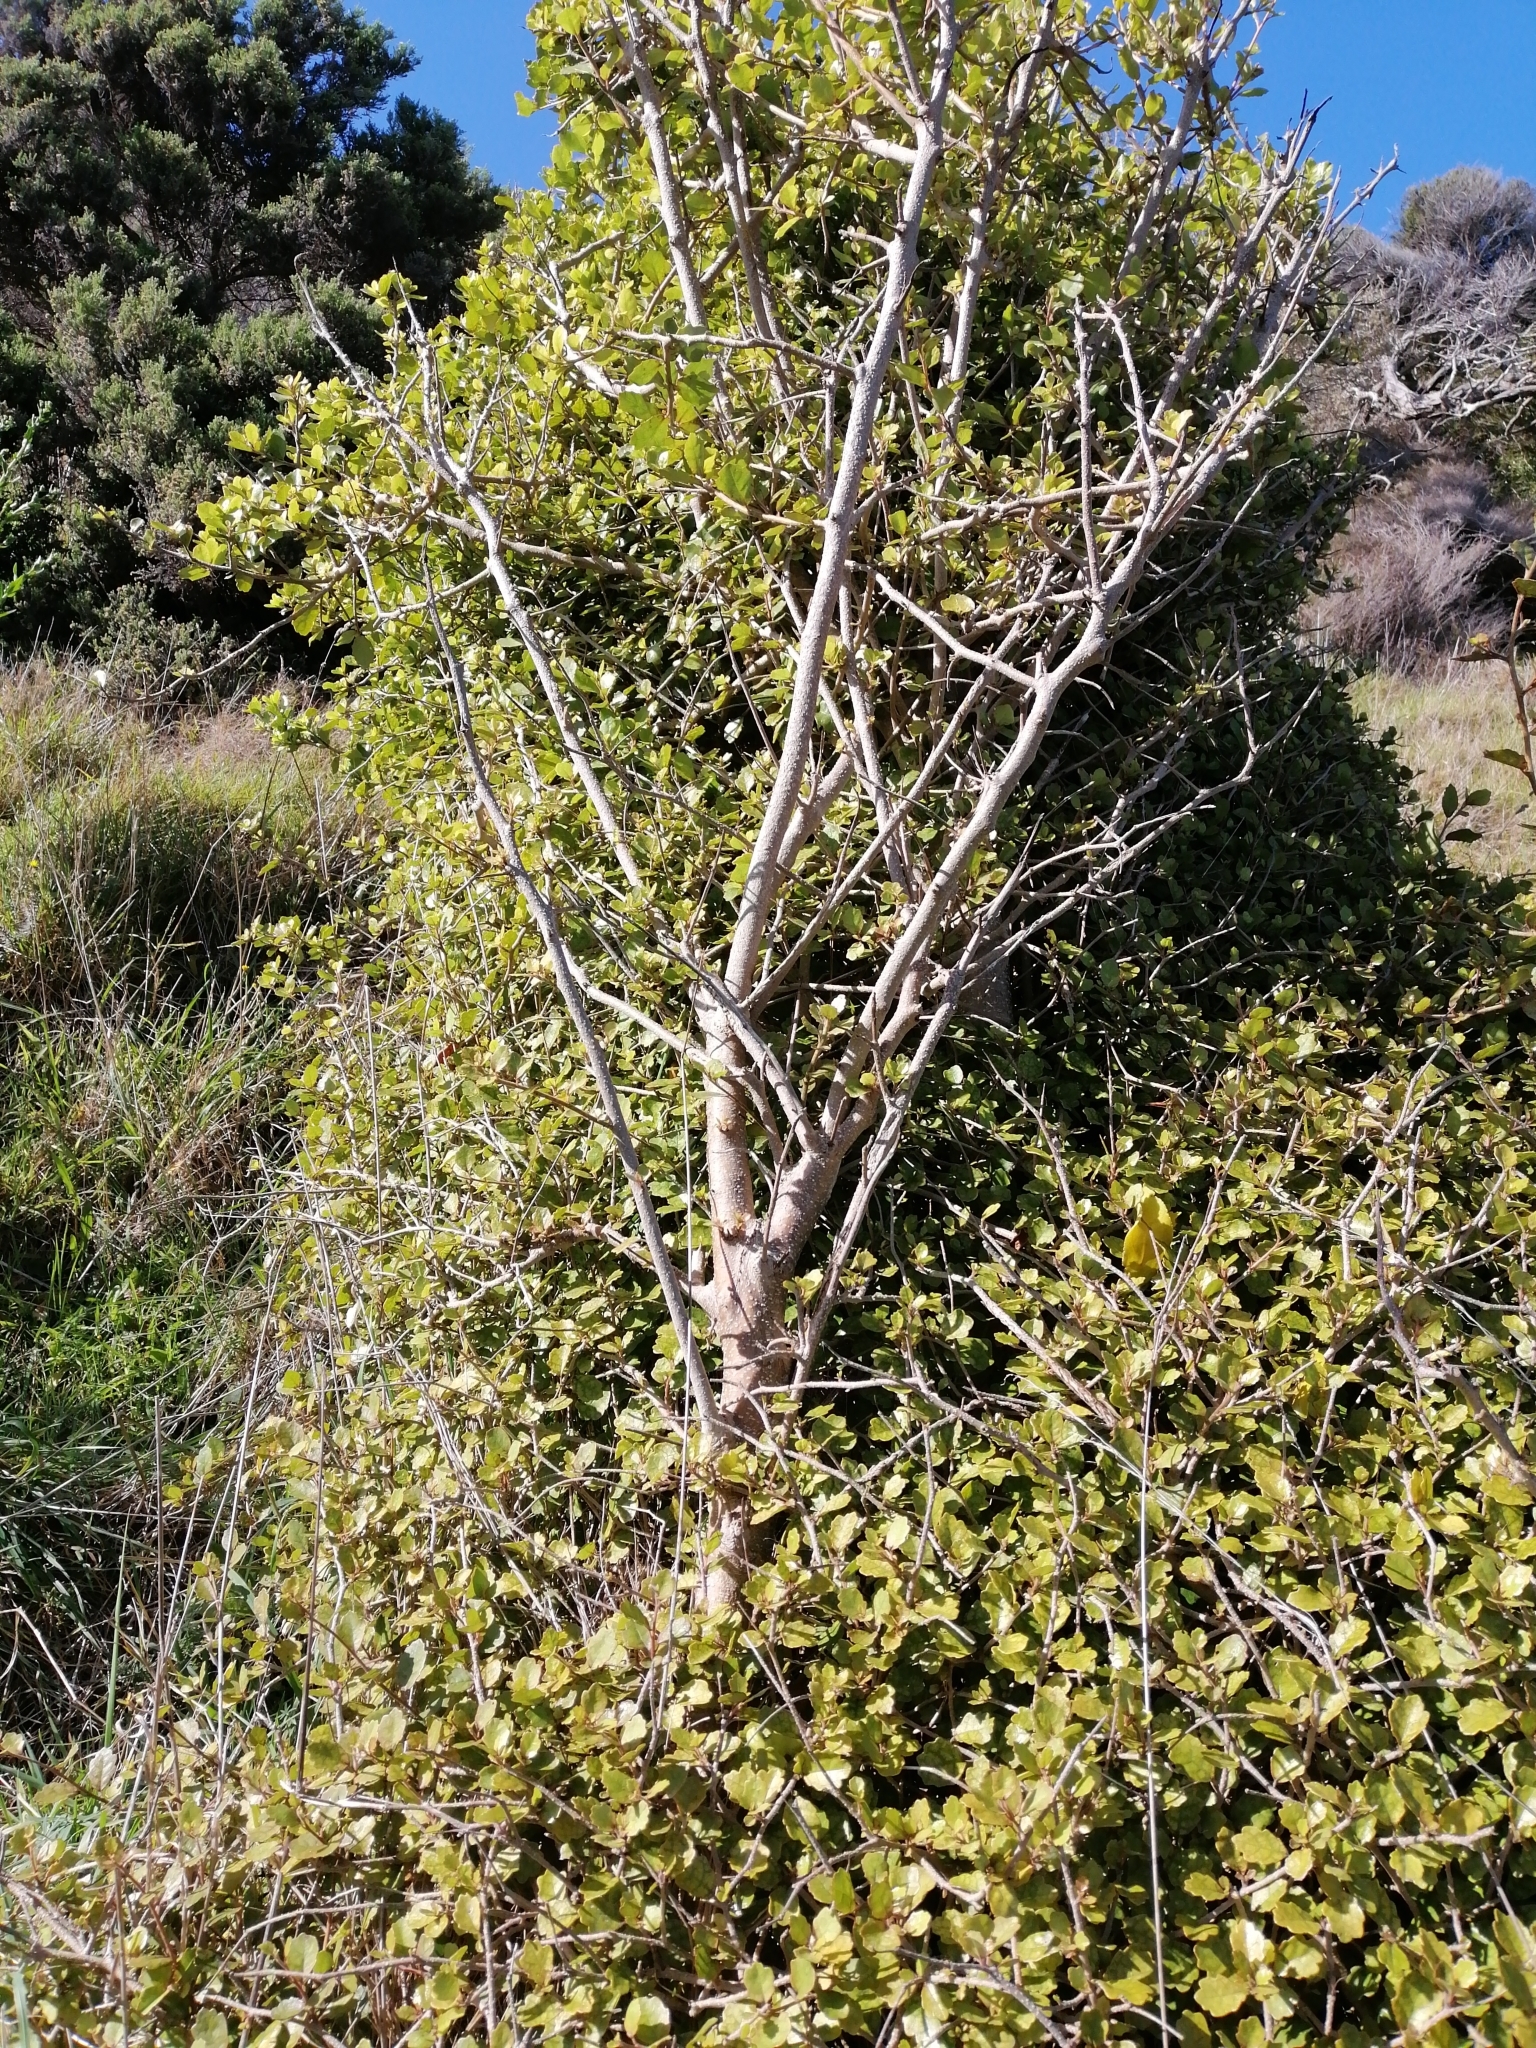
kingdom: Plantae
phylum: Tracheophyta
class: Magnoliopsida
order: Apiales
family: Pennantiaceae
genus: Pennantia
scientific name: Pennantia corymbosa
